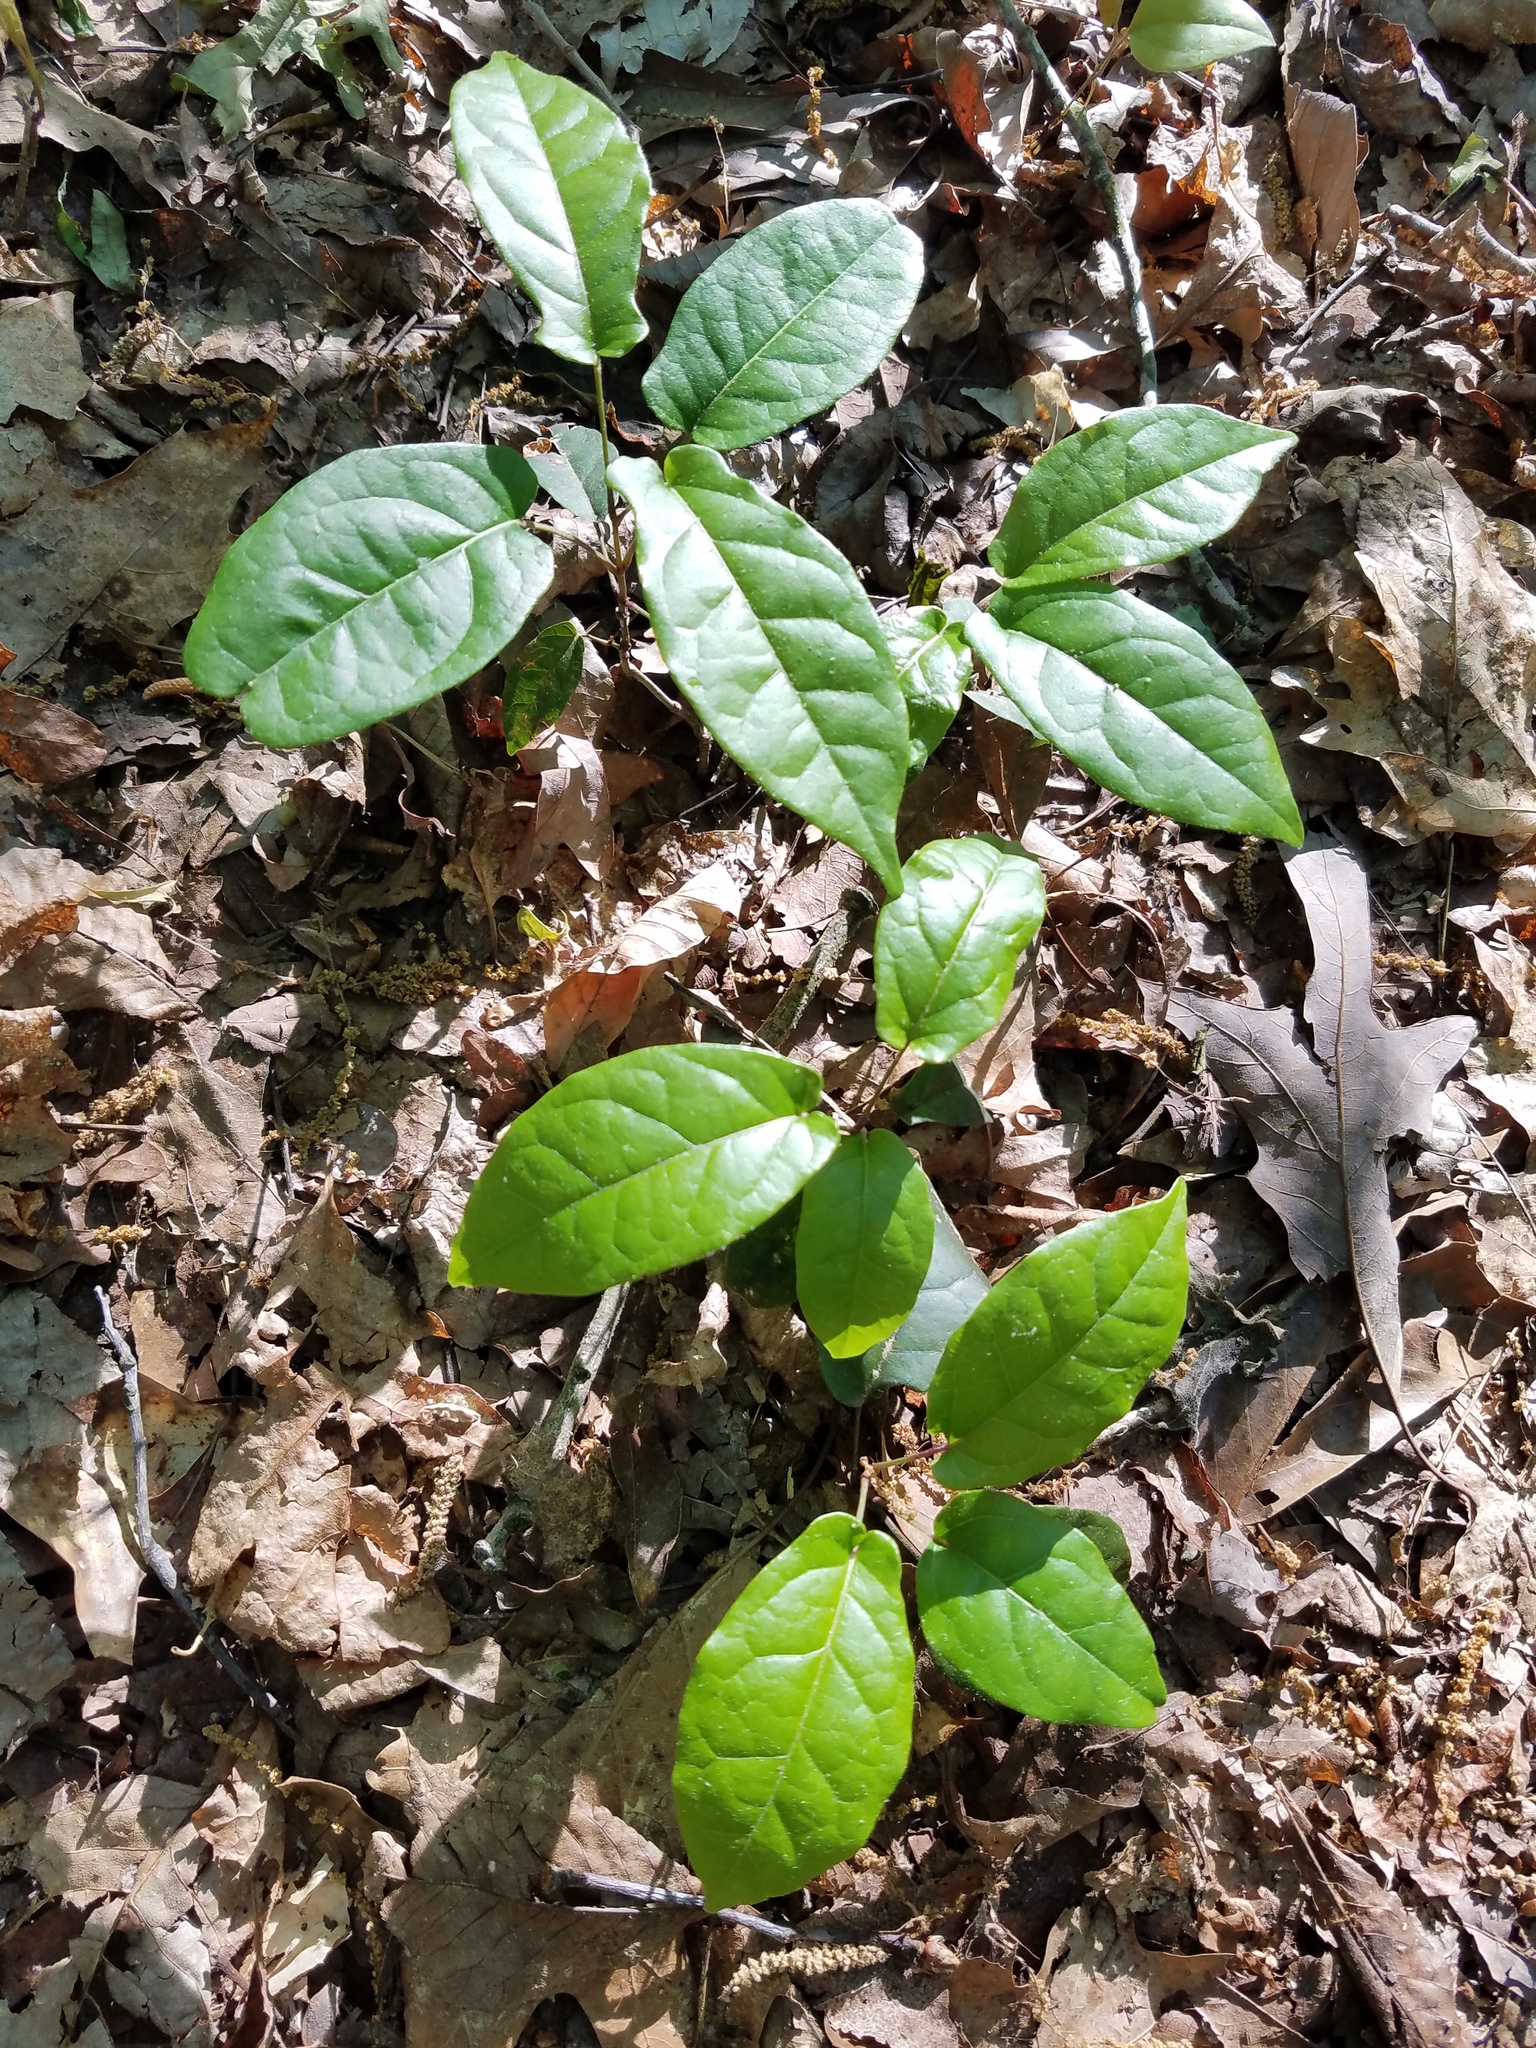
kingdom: Plantae
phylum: Tracheophyta
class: Magnoliopsida
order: Lamiales
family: Bignoniaceae
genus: Bignonia
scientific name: Bignonia capreolata
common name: Crossvine
